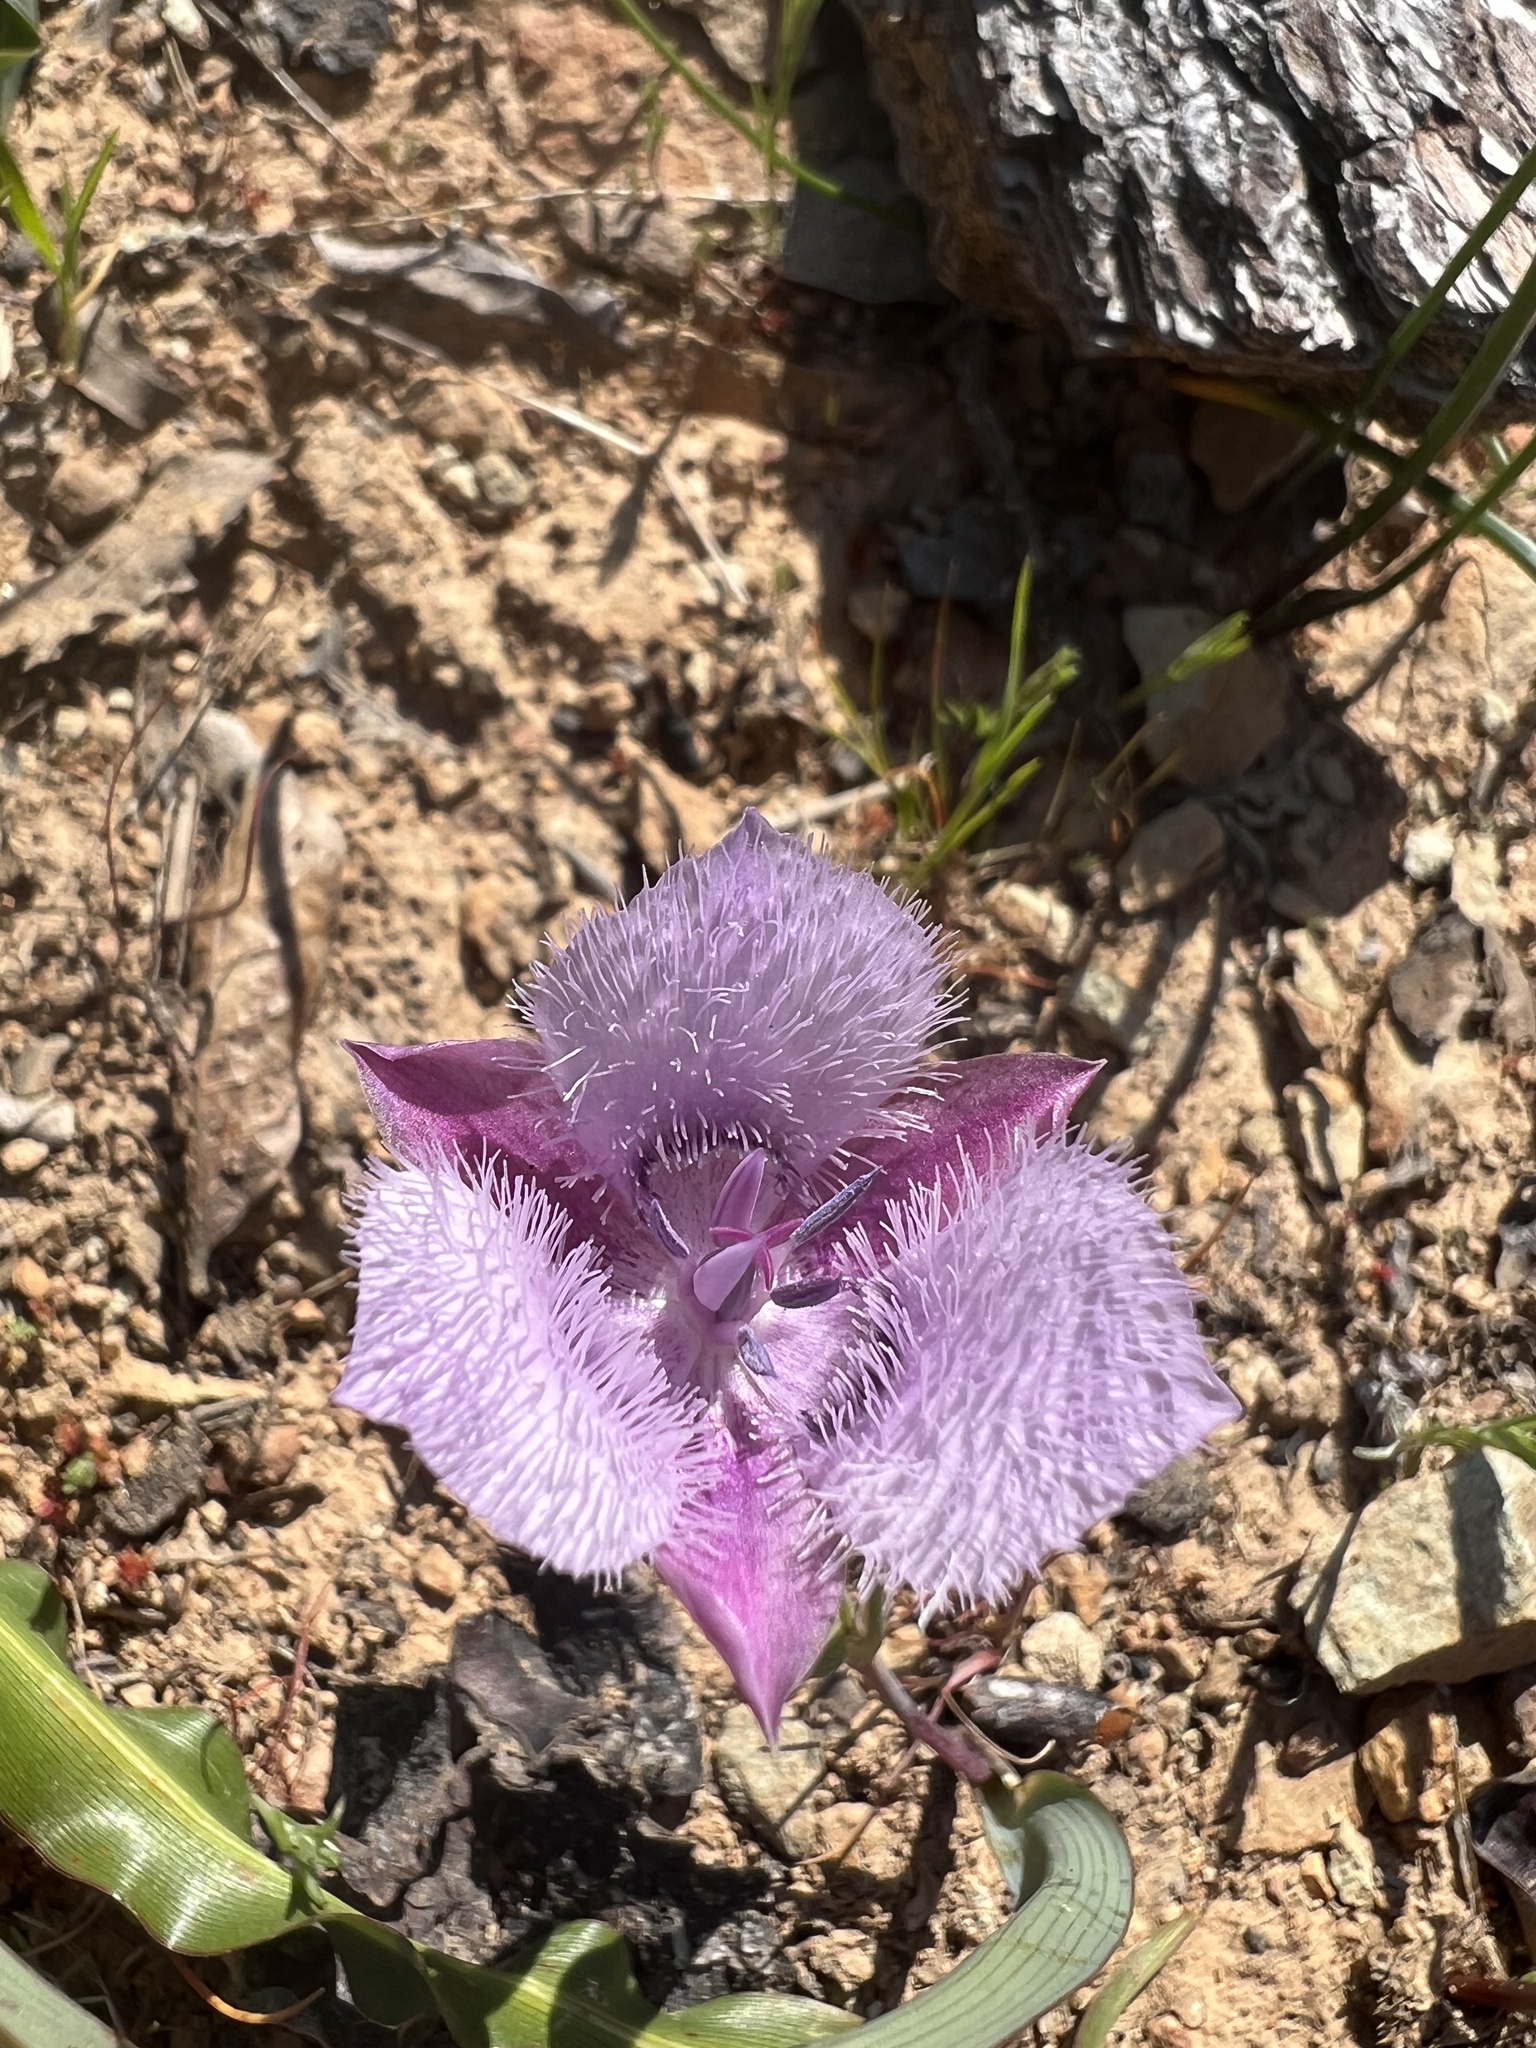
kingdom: Plantae
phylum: Tracheophyta
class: Liliopsida
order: Liliales
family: Liliaceae
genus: Calochortus
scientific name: Calochortus tolmiei
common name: Pussy-ears
